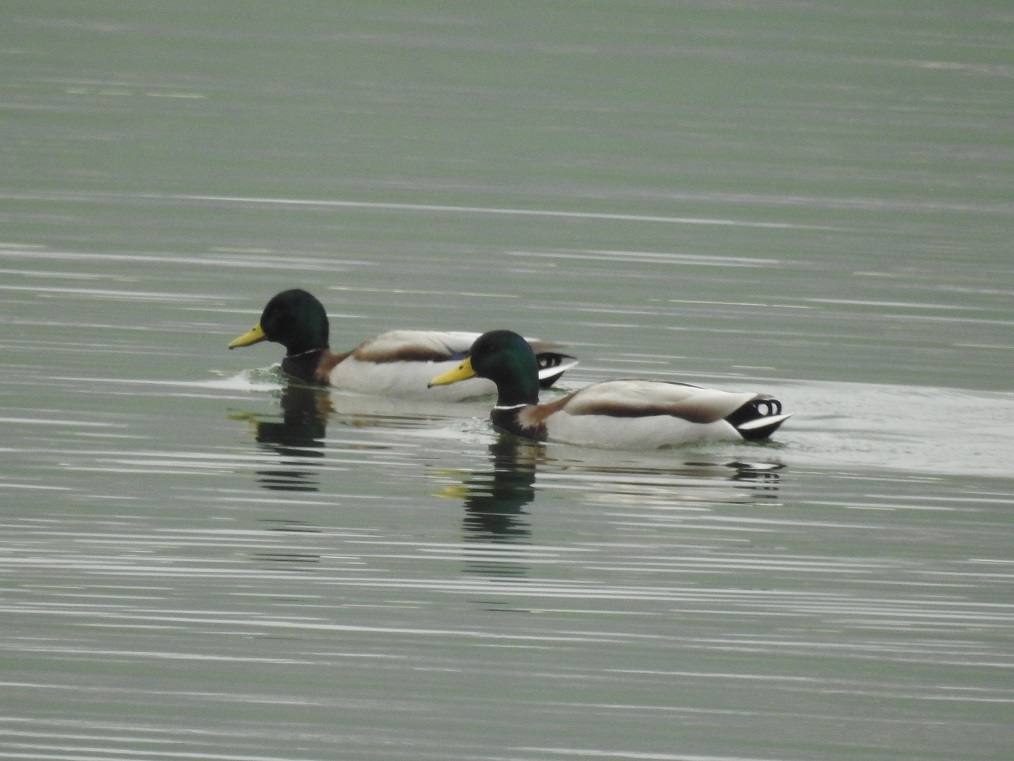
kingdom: Animalia
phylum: Chordata
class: Aves
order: Anseriformes
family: Anatidae
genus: Anas
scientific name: Anas platyrhynchos
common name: Mallard
